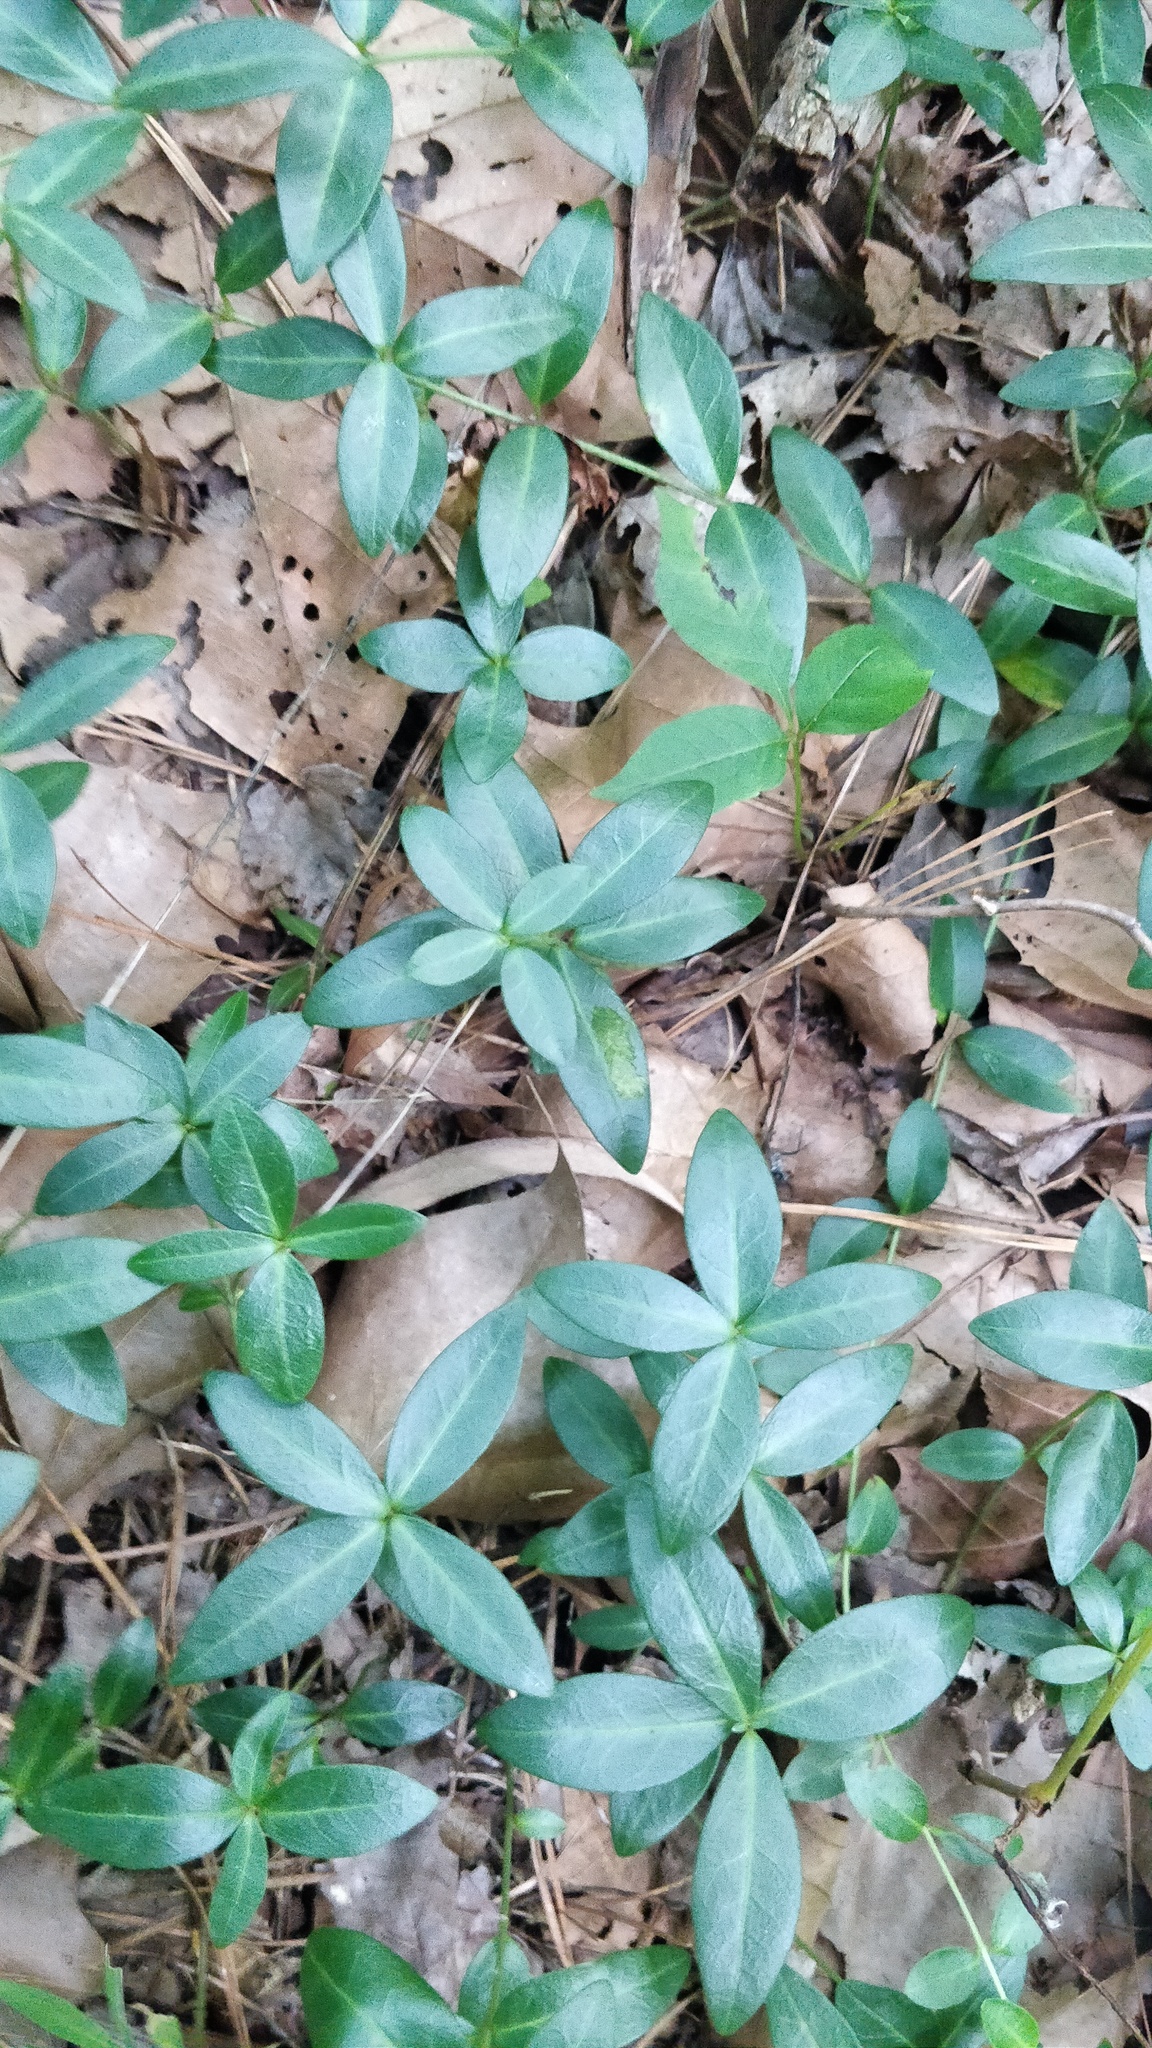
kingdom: Plantae
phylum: Tracheophyta
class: Magnoliopsida
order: Gentianales
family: Apocynaceae
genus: Vinca
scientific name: Vinca minor
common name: Lesser periwinkle
